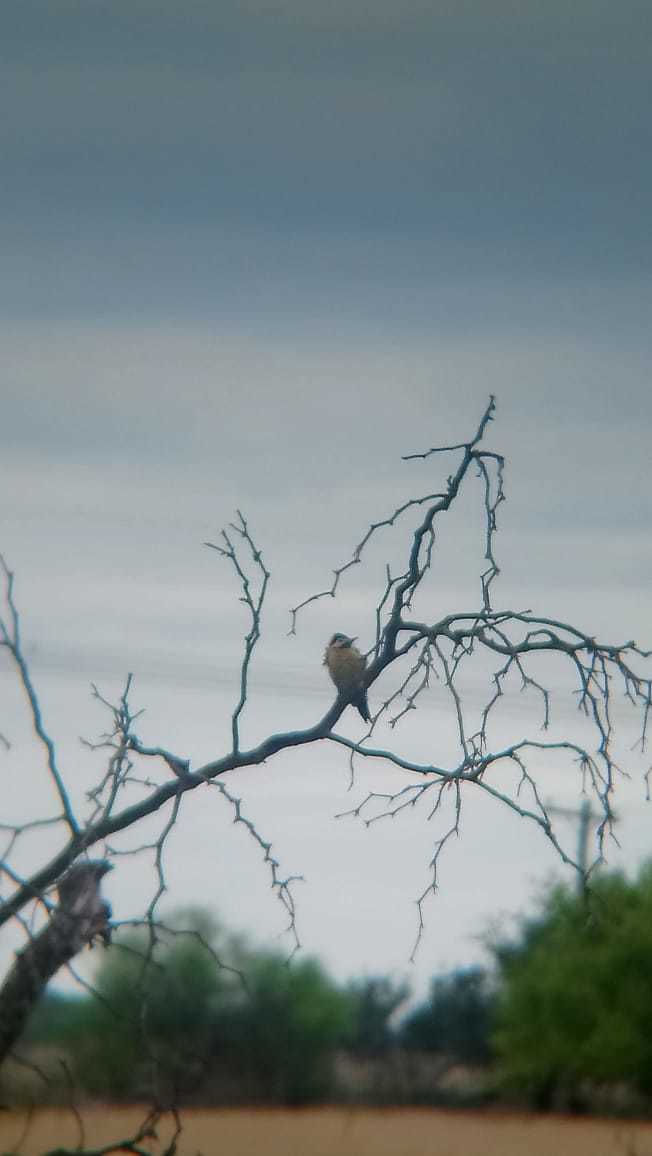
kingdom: Animalia
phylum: Chordata
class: Aves
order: Piciformes
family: Picidae
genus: Colaptes
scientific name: Colaptes melanochloros
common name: Green-barred woodpecker
